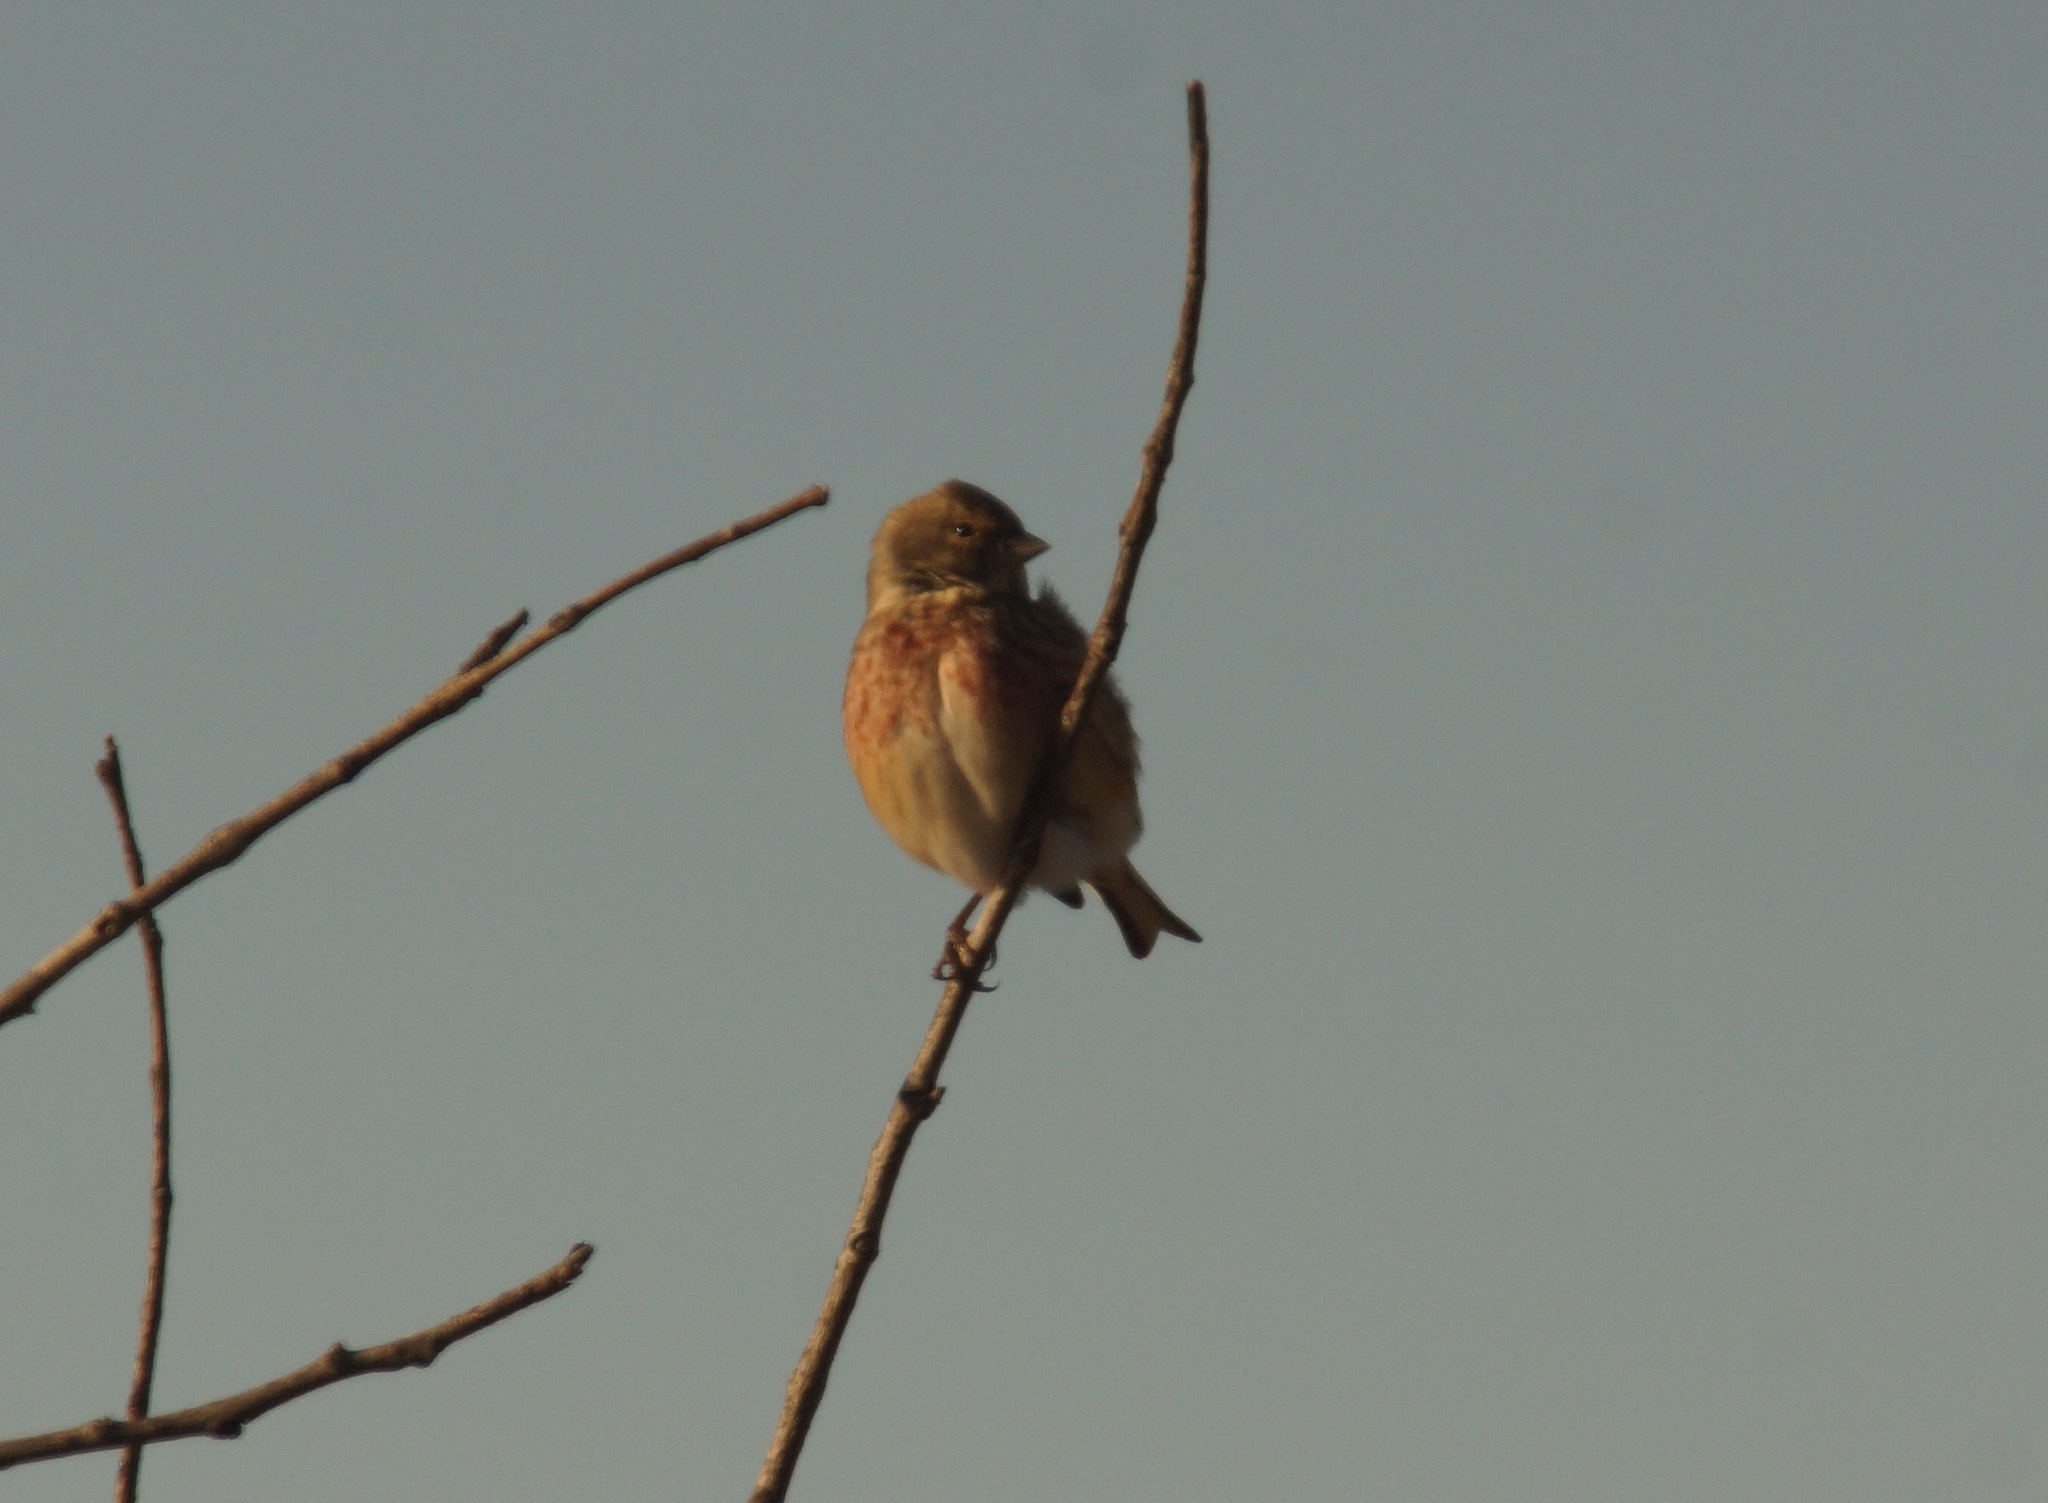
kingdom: Animalia
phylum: Chordata
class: Aves
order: Passeriformes
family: Fringillidae
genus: Linaria
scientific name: Linaria cannabina
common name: Common linnet
